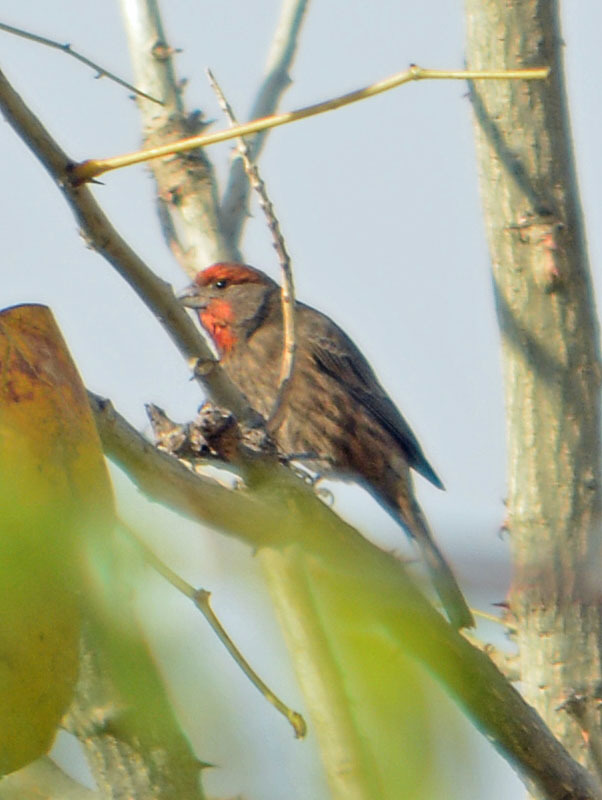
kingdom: Animalia
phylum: Chordata
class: Aves
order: Passeriformes
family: Fringillidae
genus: Haemorhous
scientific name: Haemorhous mexicanus
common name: House finch
